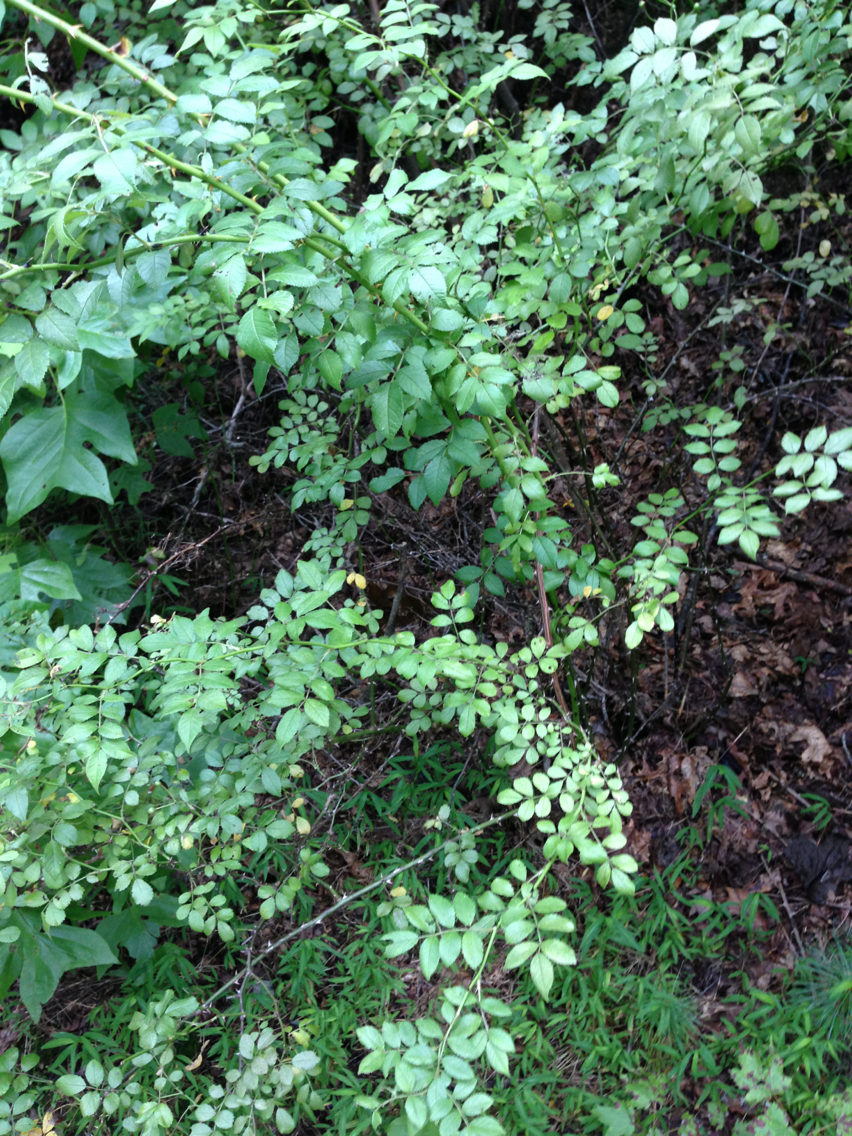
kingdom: Plantae
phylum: Tracheophyta
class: Magnoliopsida
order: Rosales
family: Rosaceae
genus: Rosa
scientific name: Rosa multiflora
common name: Multiflora rose
